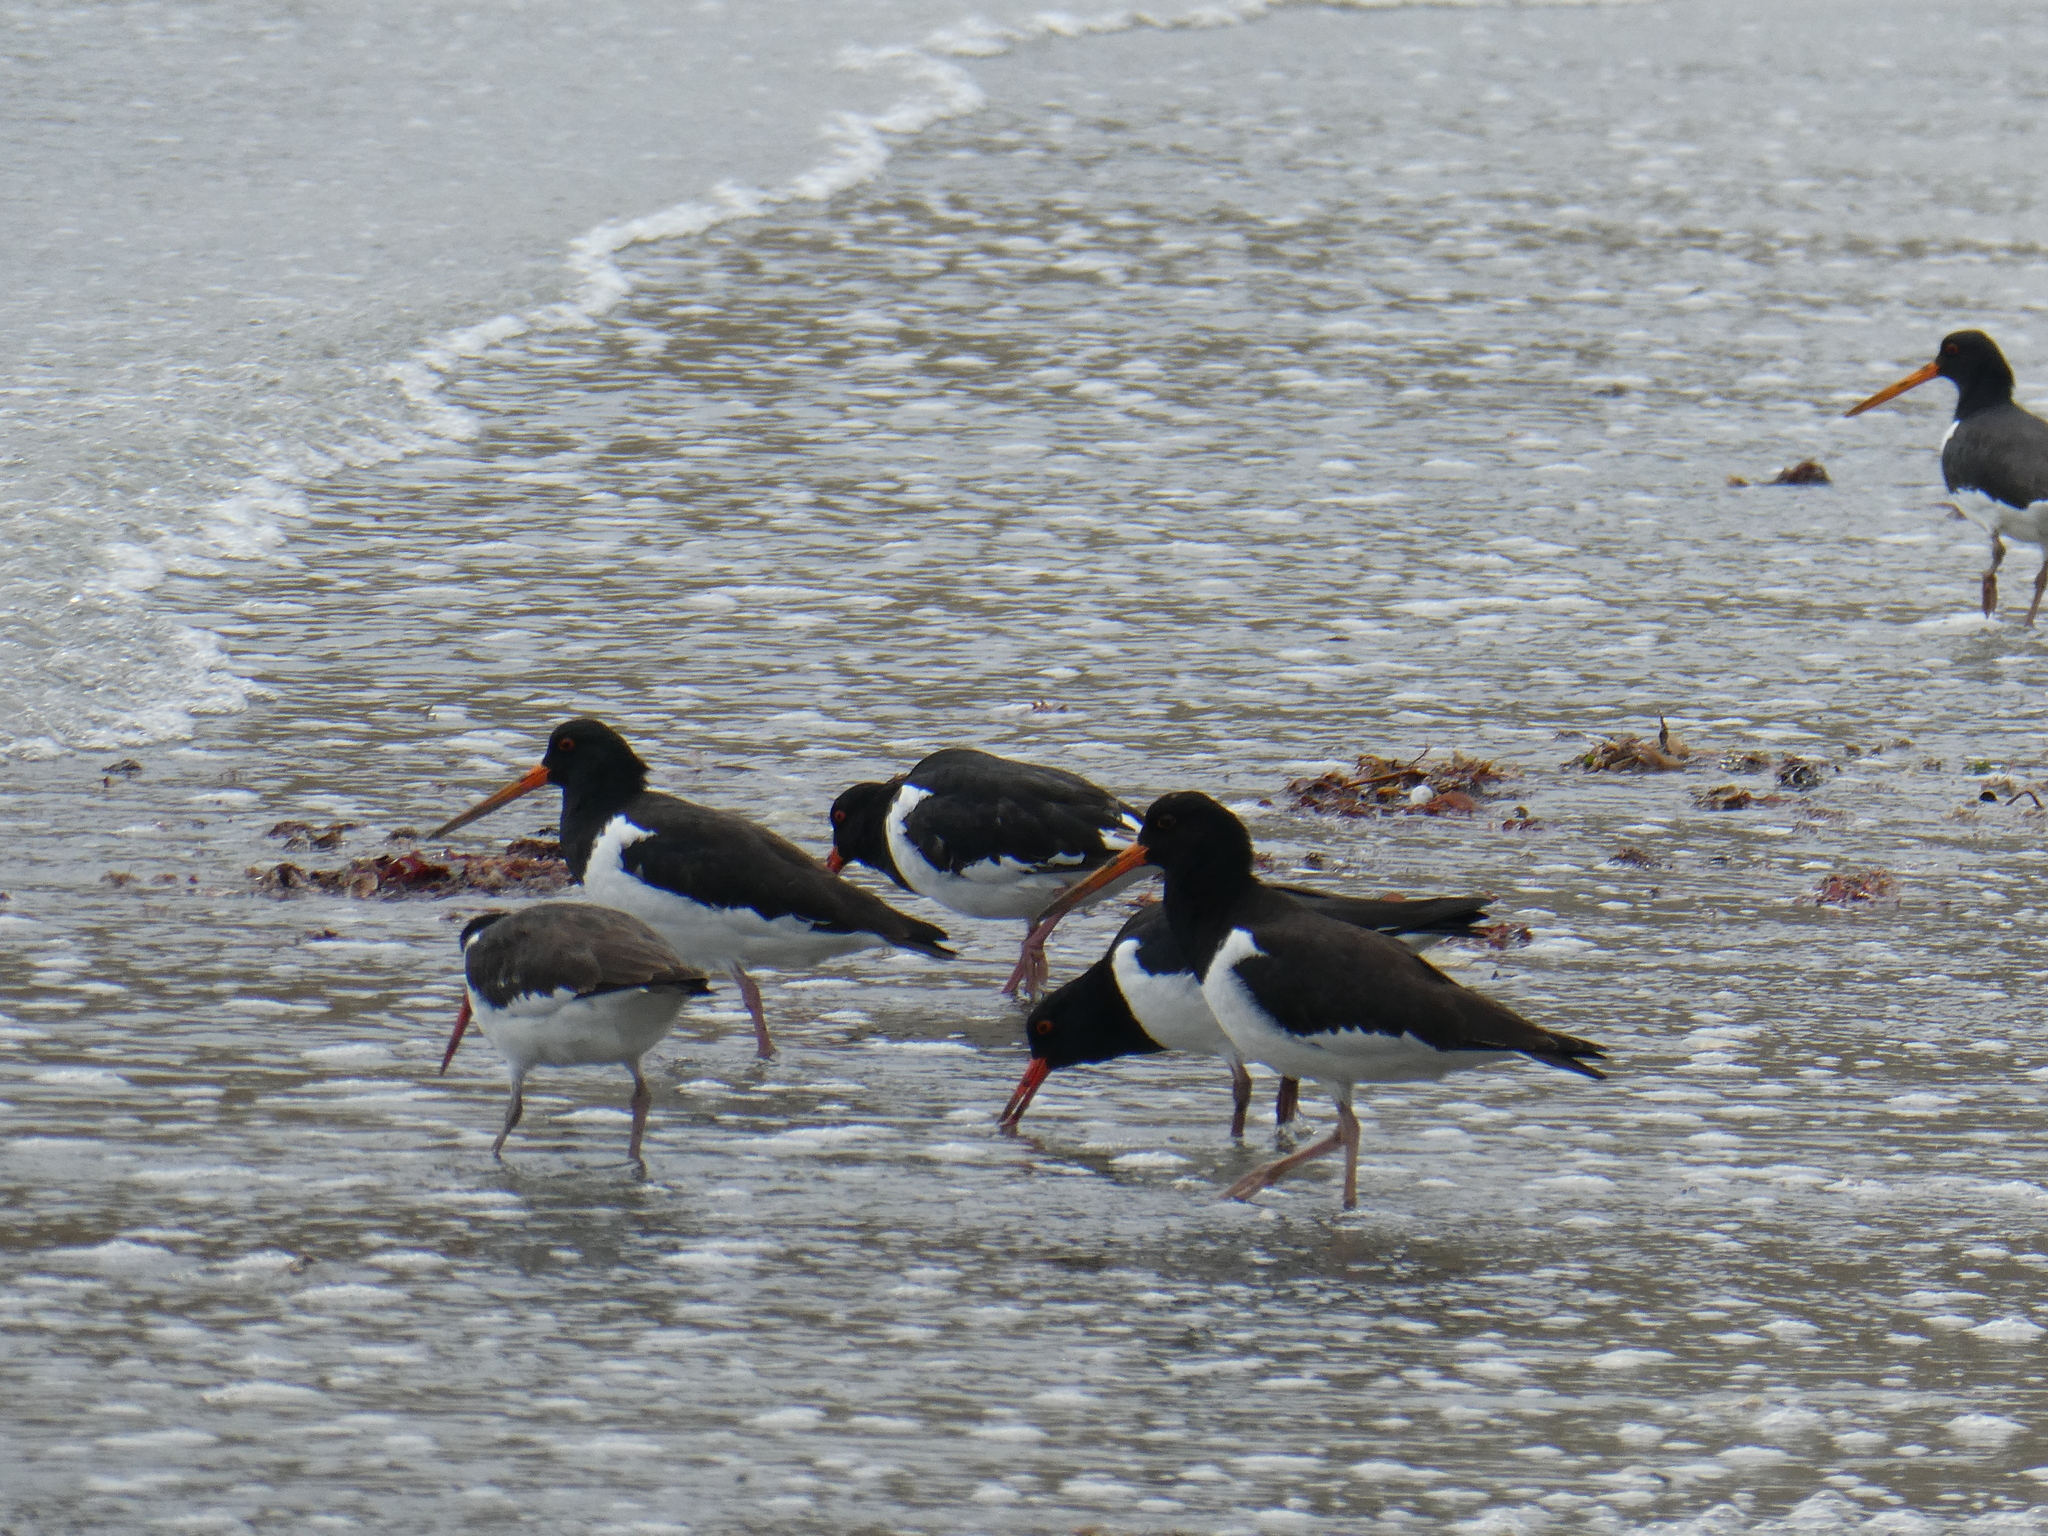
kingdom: Animalia
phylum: Chordata
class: Aves
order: Charadriiformes
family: Haematopodidae
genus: Haematopus
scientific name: Haematopus finschi
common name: South island oystercatcher
